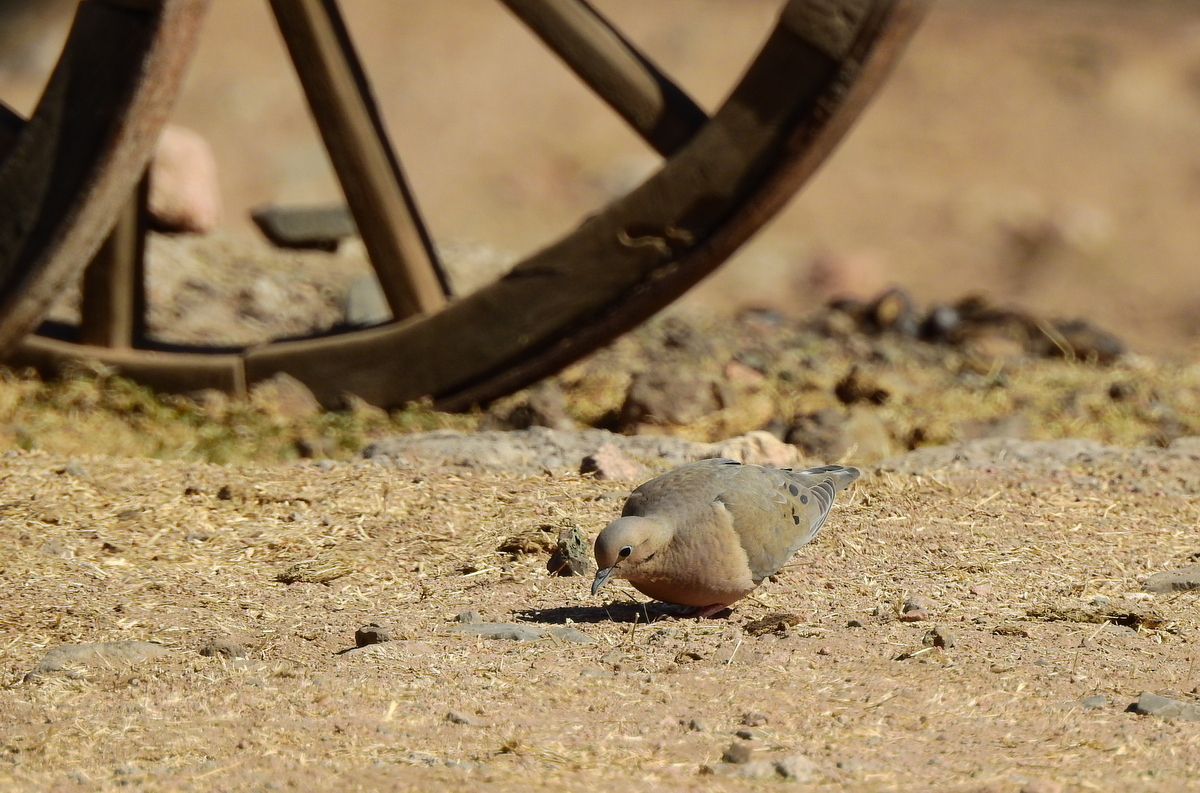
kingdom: Animalia
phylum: Chordata
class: Aves
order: Columbiformes
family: Columbidae
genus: Zenaida
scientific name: Zenaida auriculata
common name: Eared dove
